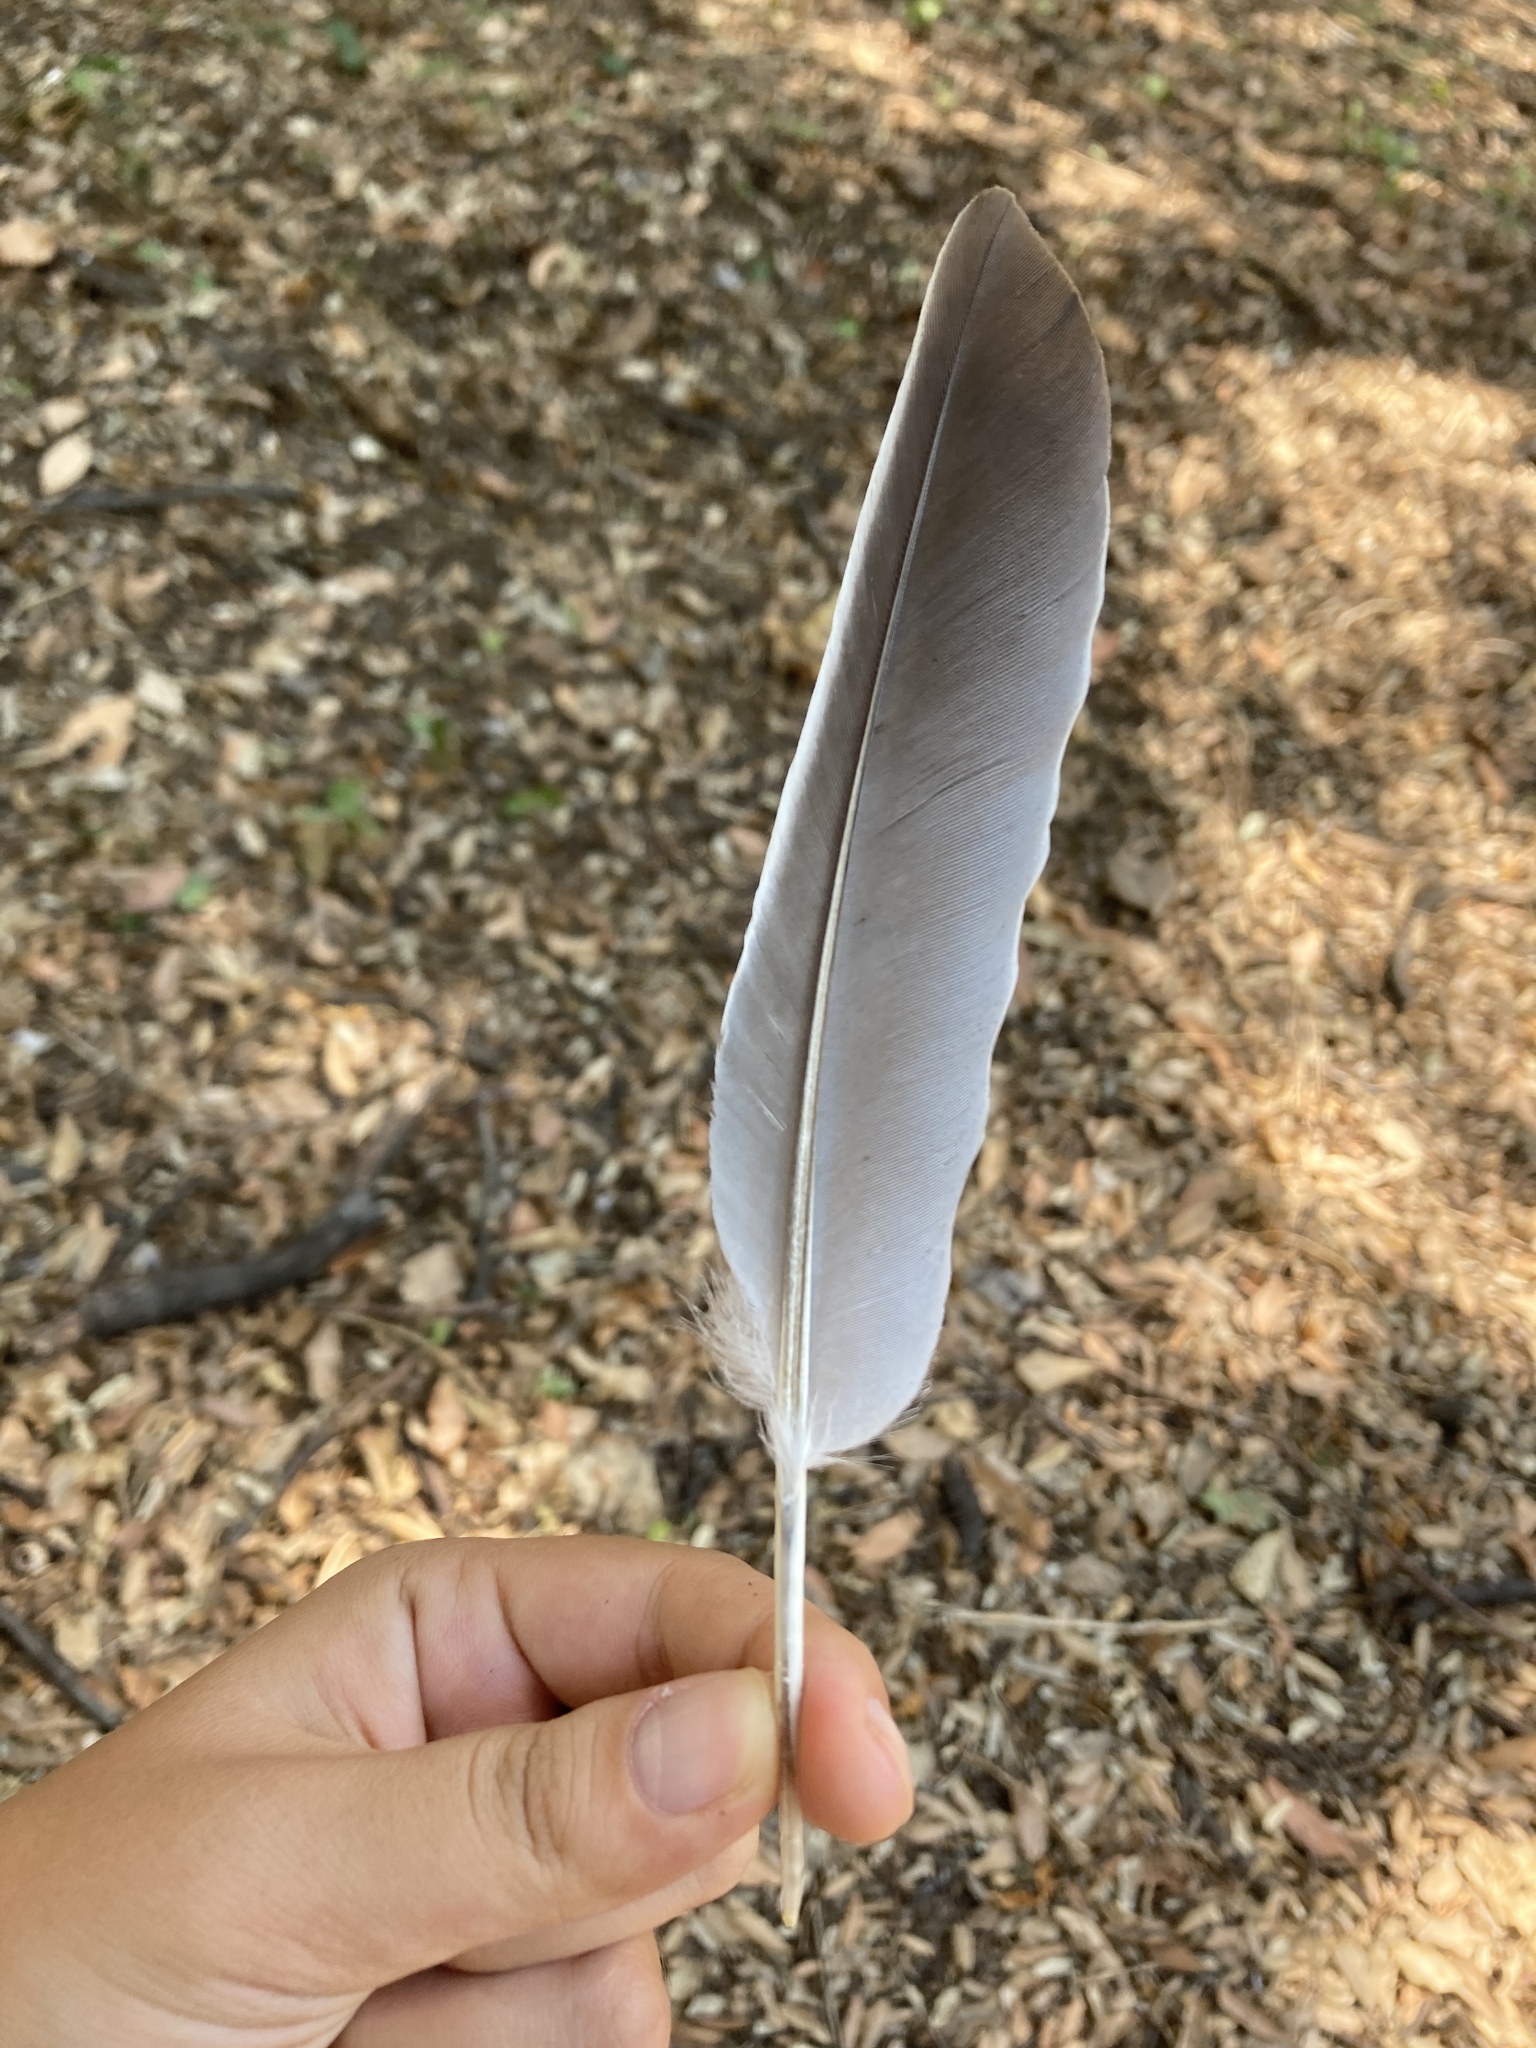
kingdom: Animalia
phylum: Chordata
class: Aves
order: Columbiformes
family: Columbidae
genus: Columba
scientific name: Columba palumbus
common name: Common wood pigeon
